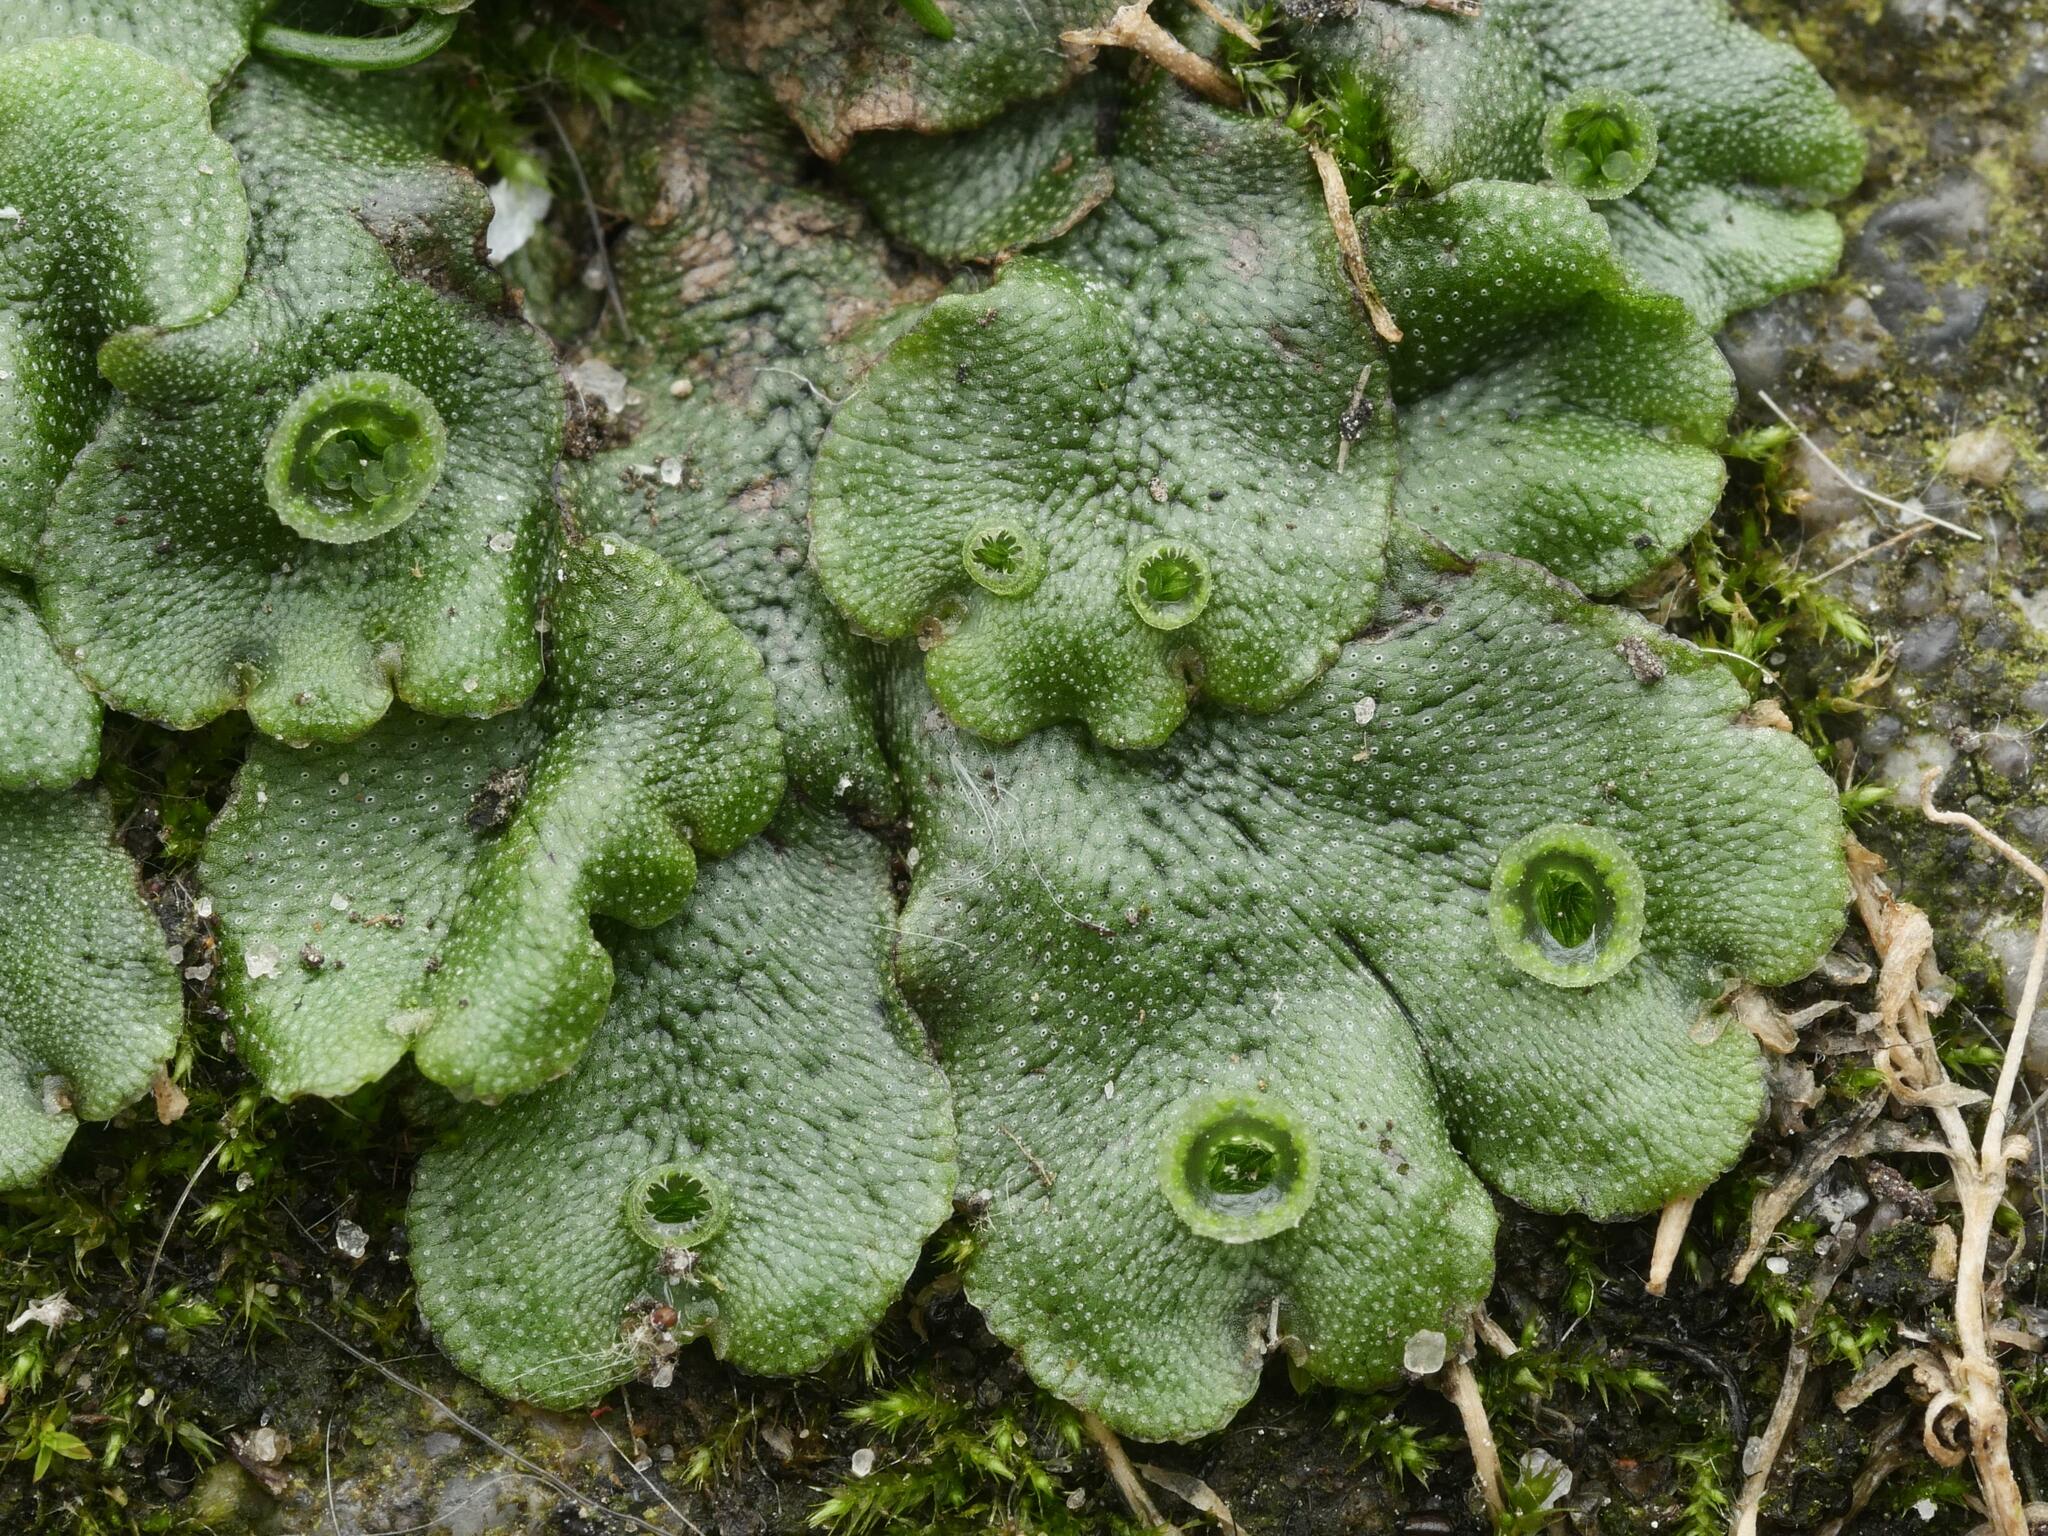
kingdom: Plantae
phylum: Marchantiophyta
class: Marchantiopsida
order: Marchantiales
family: Marchantiaceae
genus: Marchantia
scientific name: Marchantia polymorpha
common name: Common liverwort
